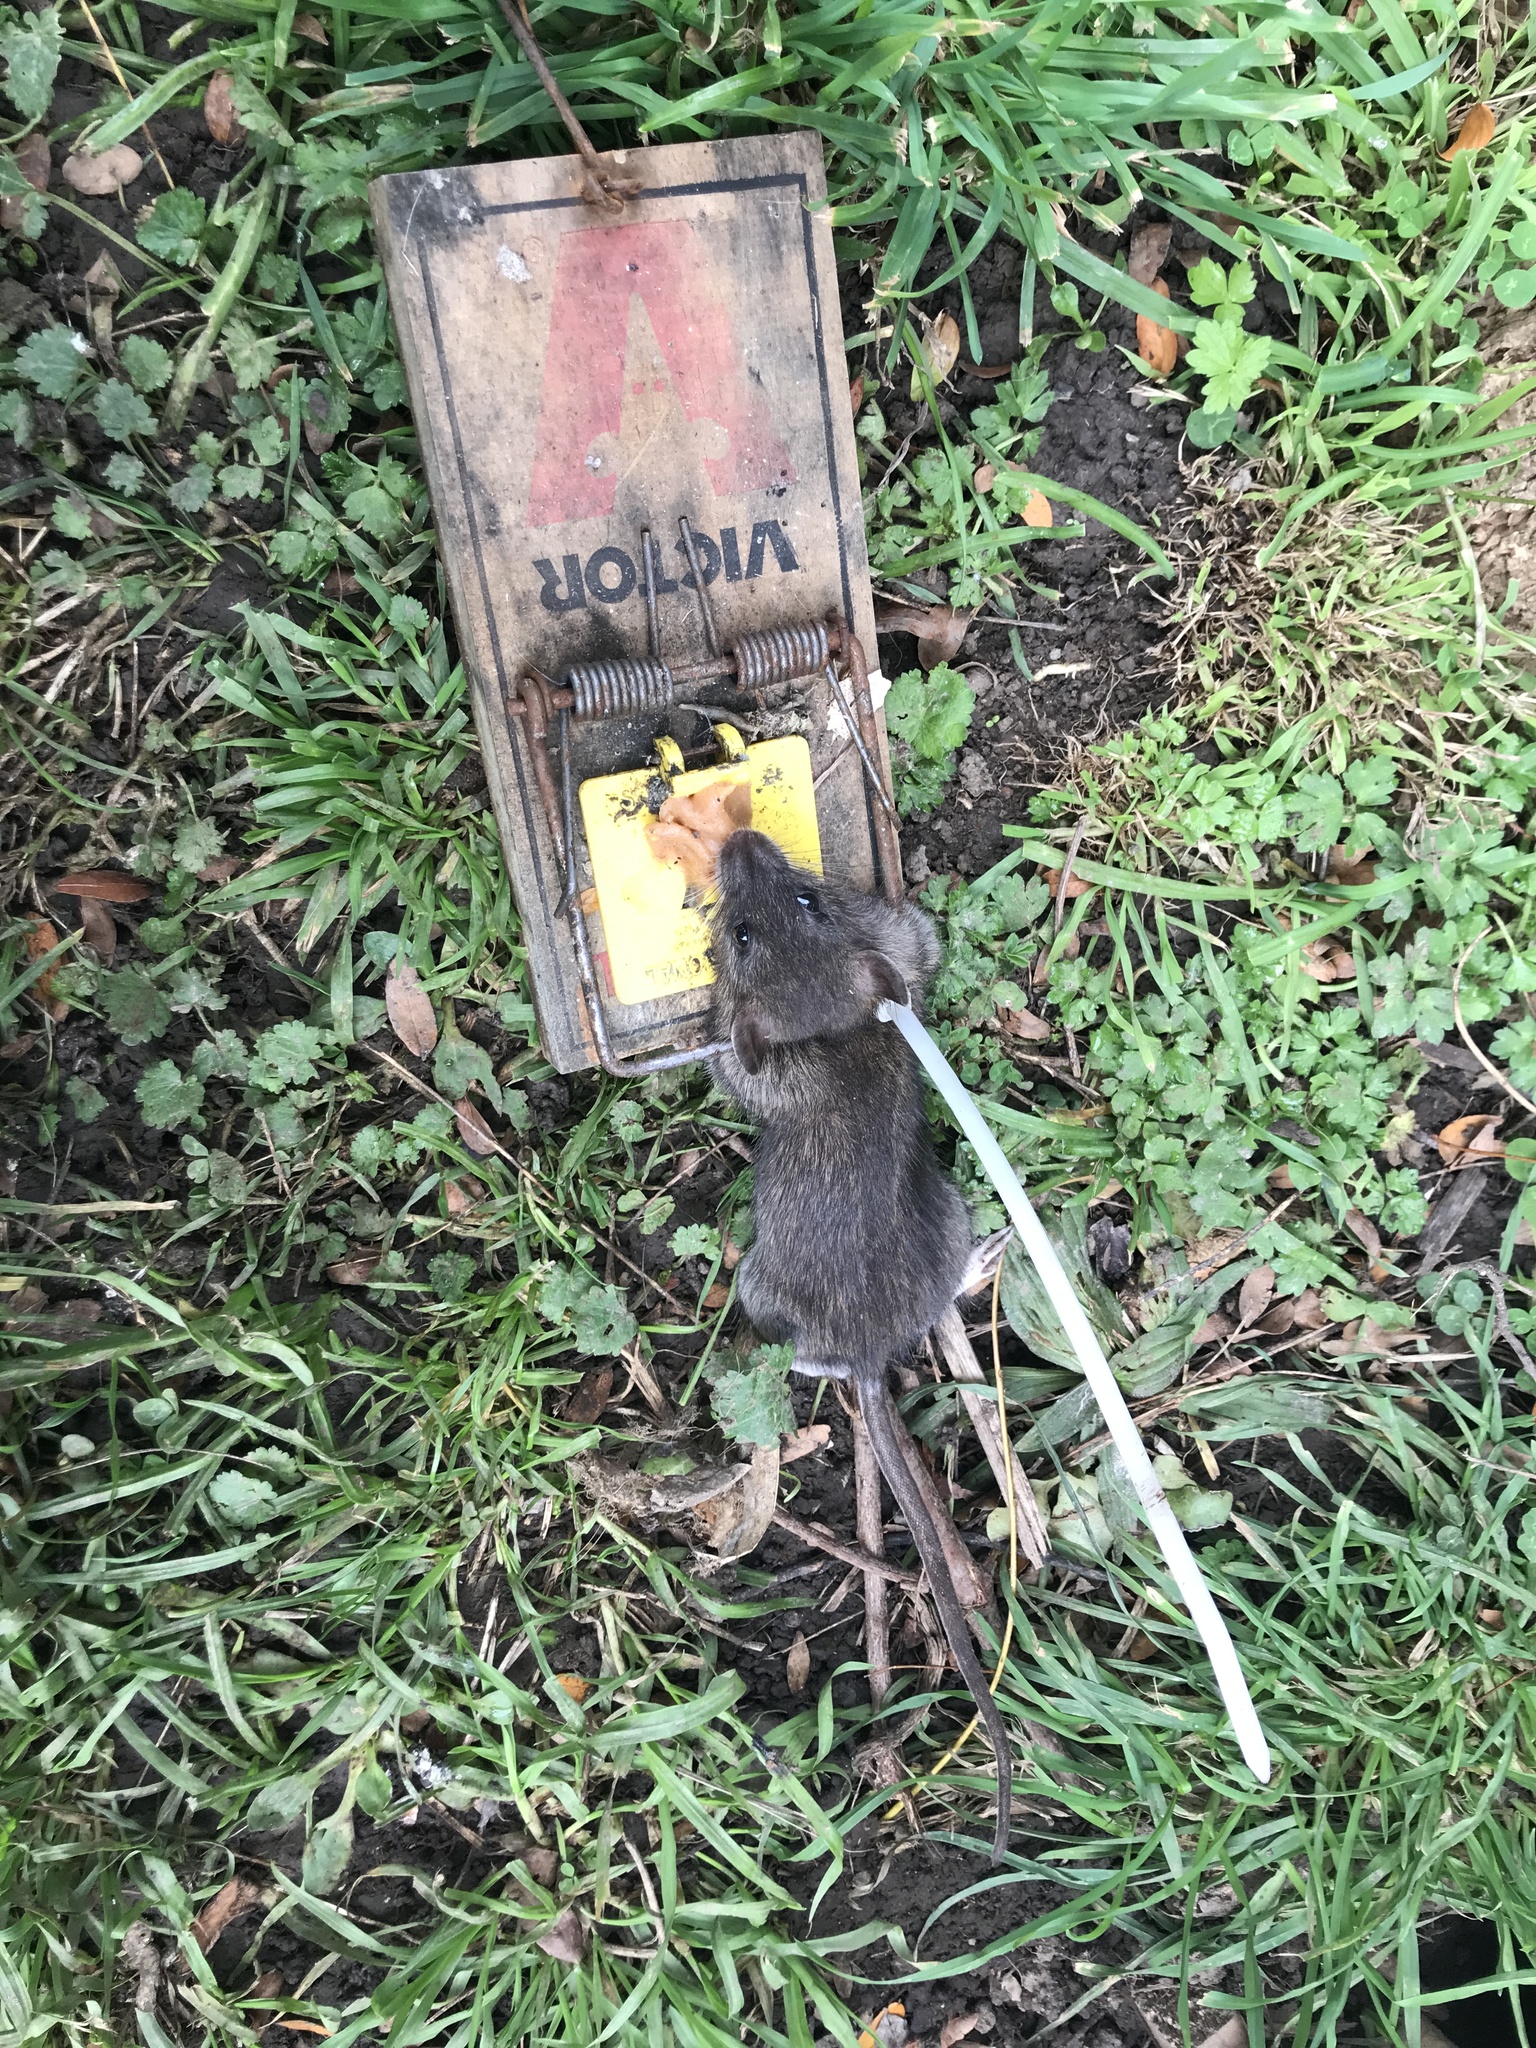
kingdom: Animalia
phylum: Chordata
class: Mammalia
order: Rodentia
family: Muridae
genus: Rattus
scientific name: Rattus rattus
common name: Black rat
